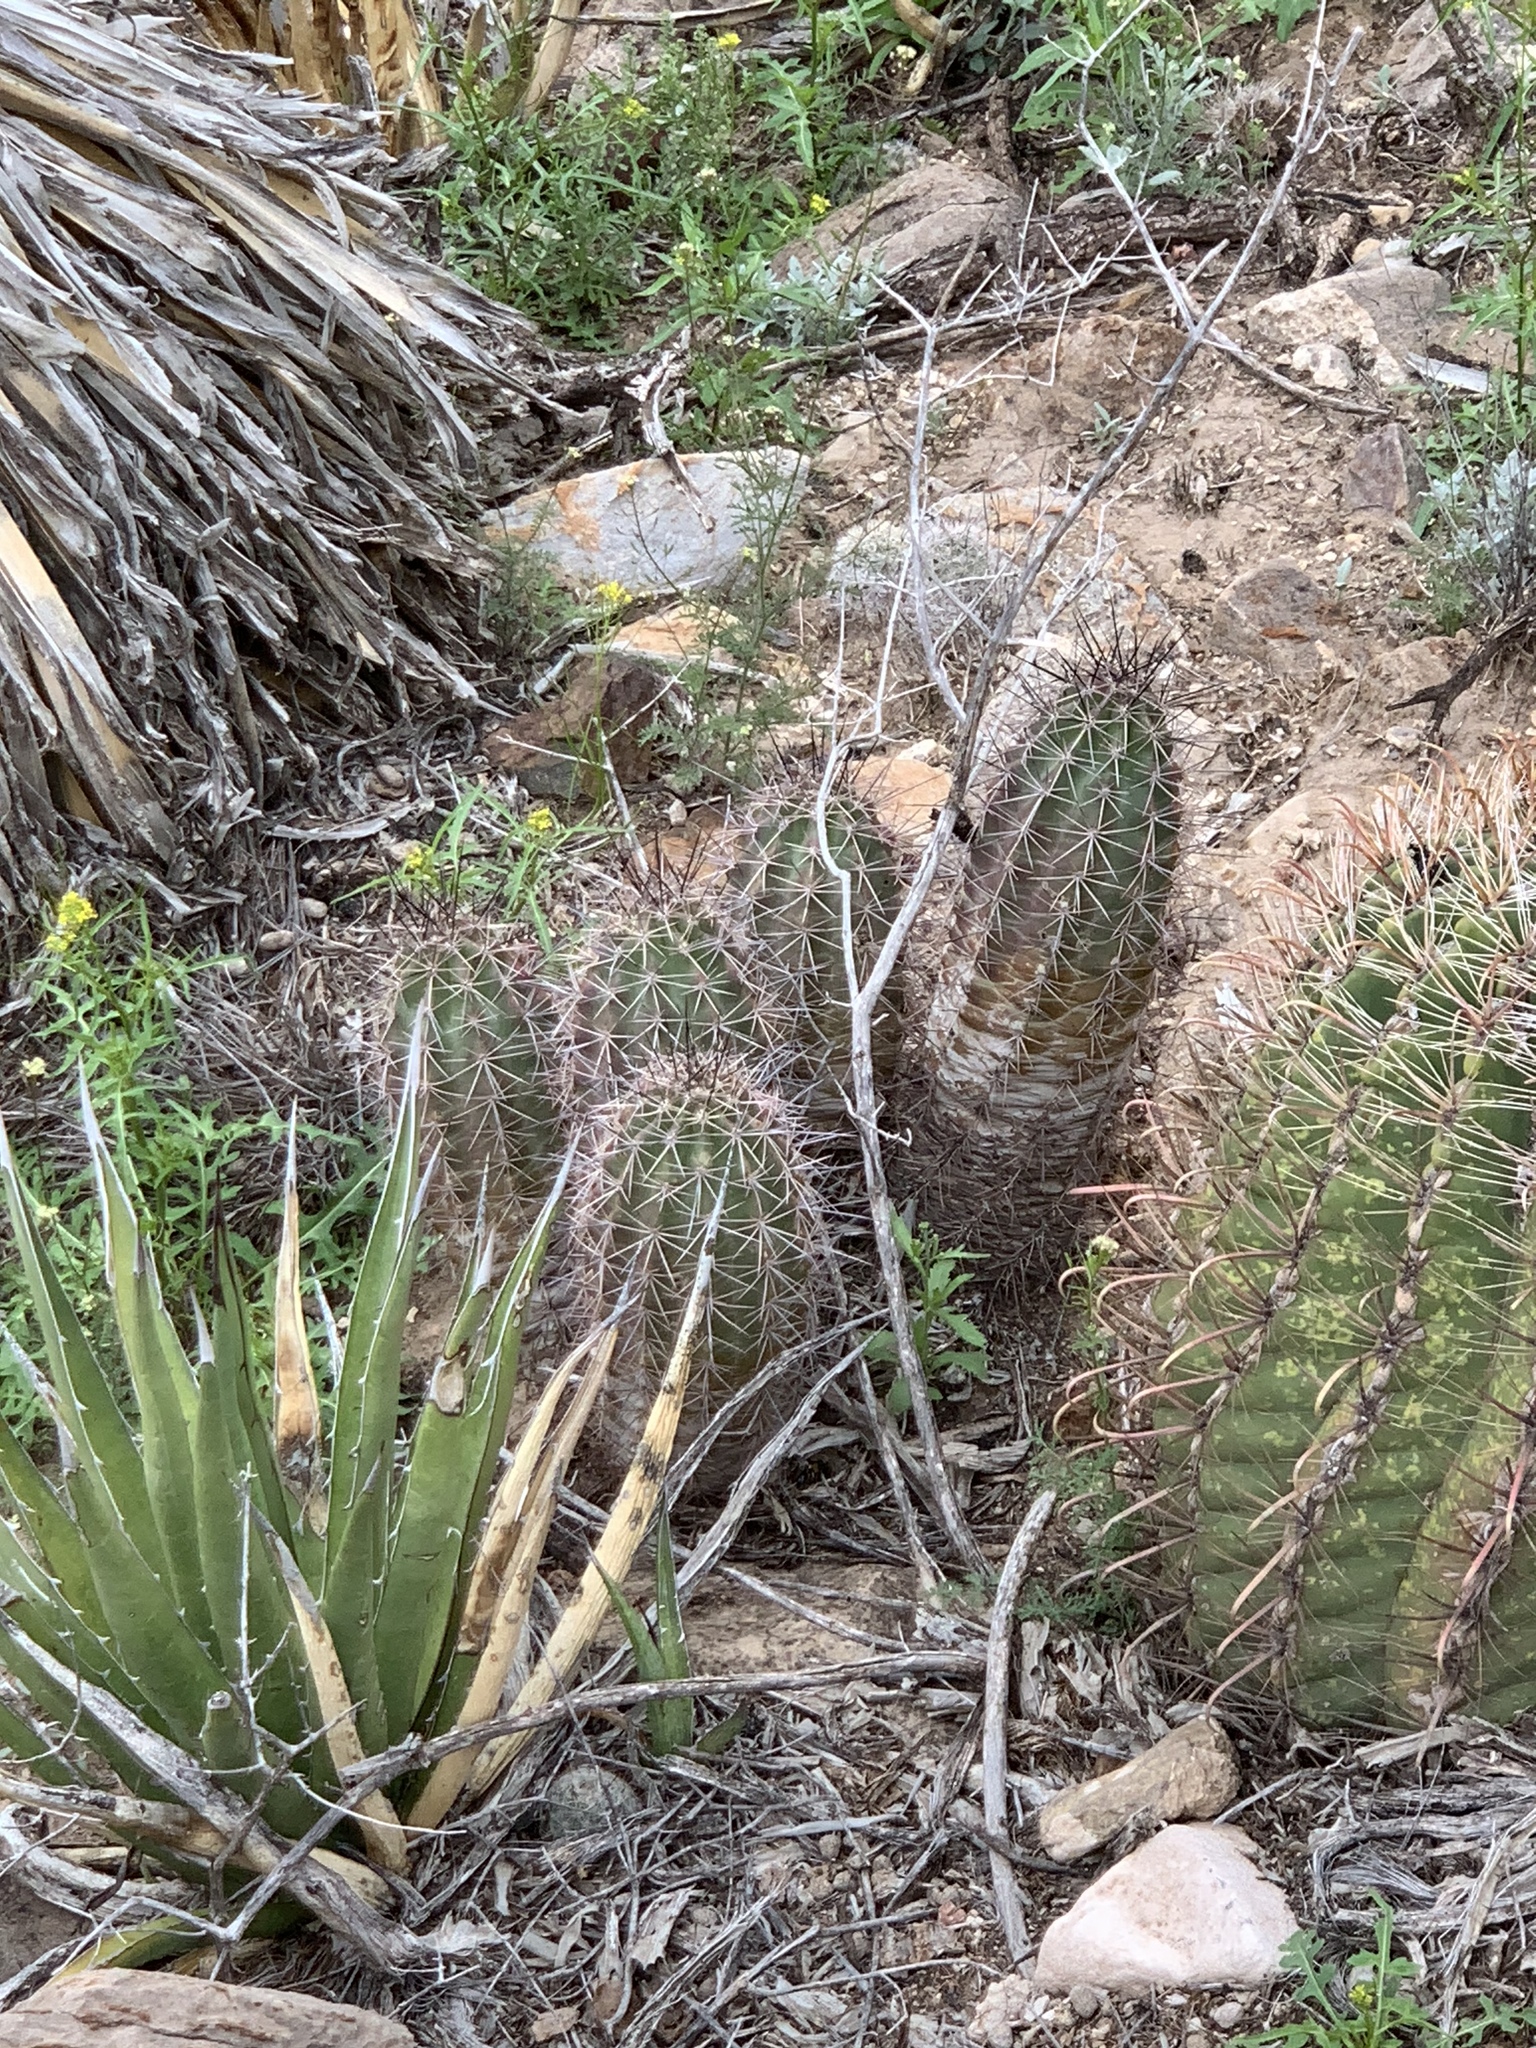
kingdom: Plantae
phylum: Tracheophyta
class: Magnoliopsida
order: Caryophyllales
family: Cactaceae
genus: Echinocereus
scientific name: Echinocereus coccineus
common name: Scarlet hedgehog cactus
